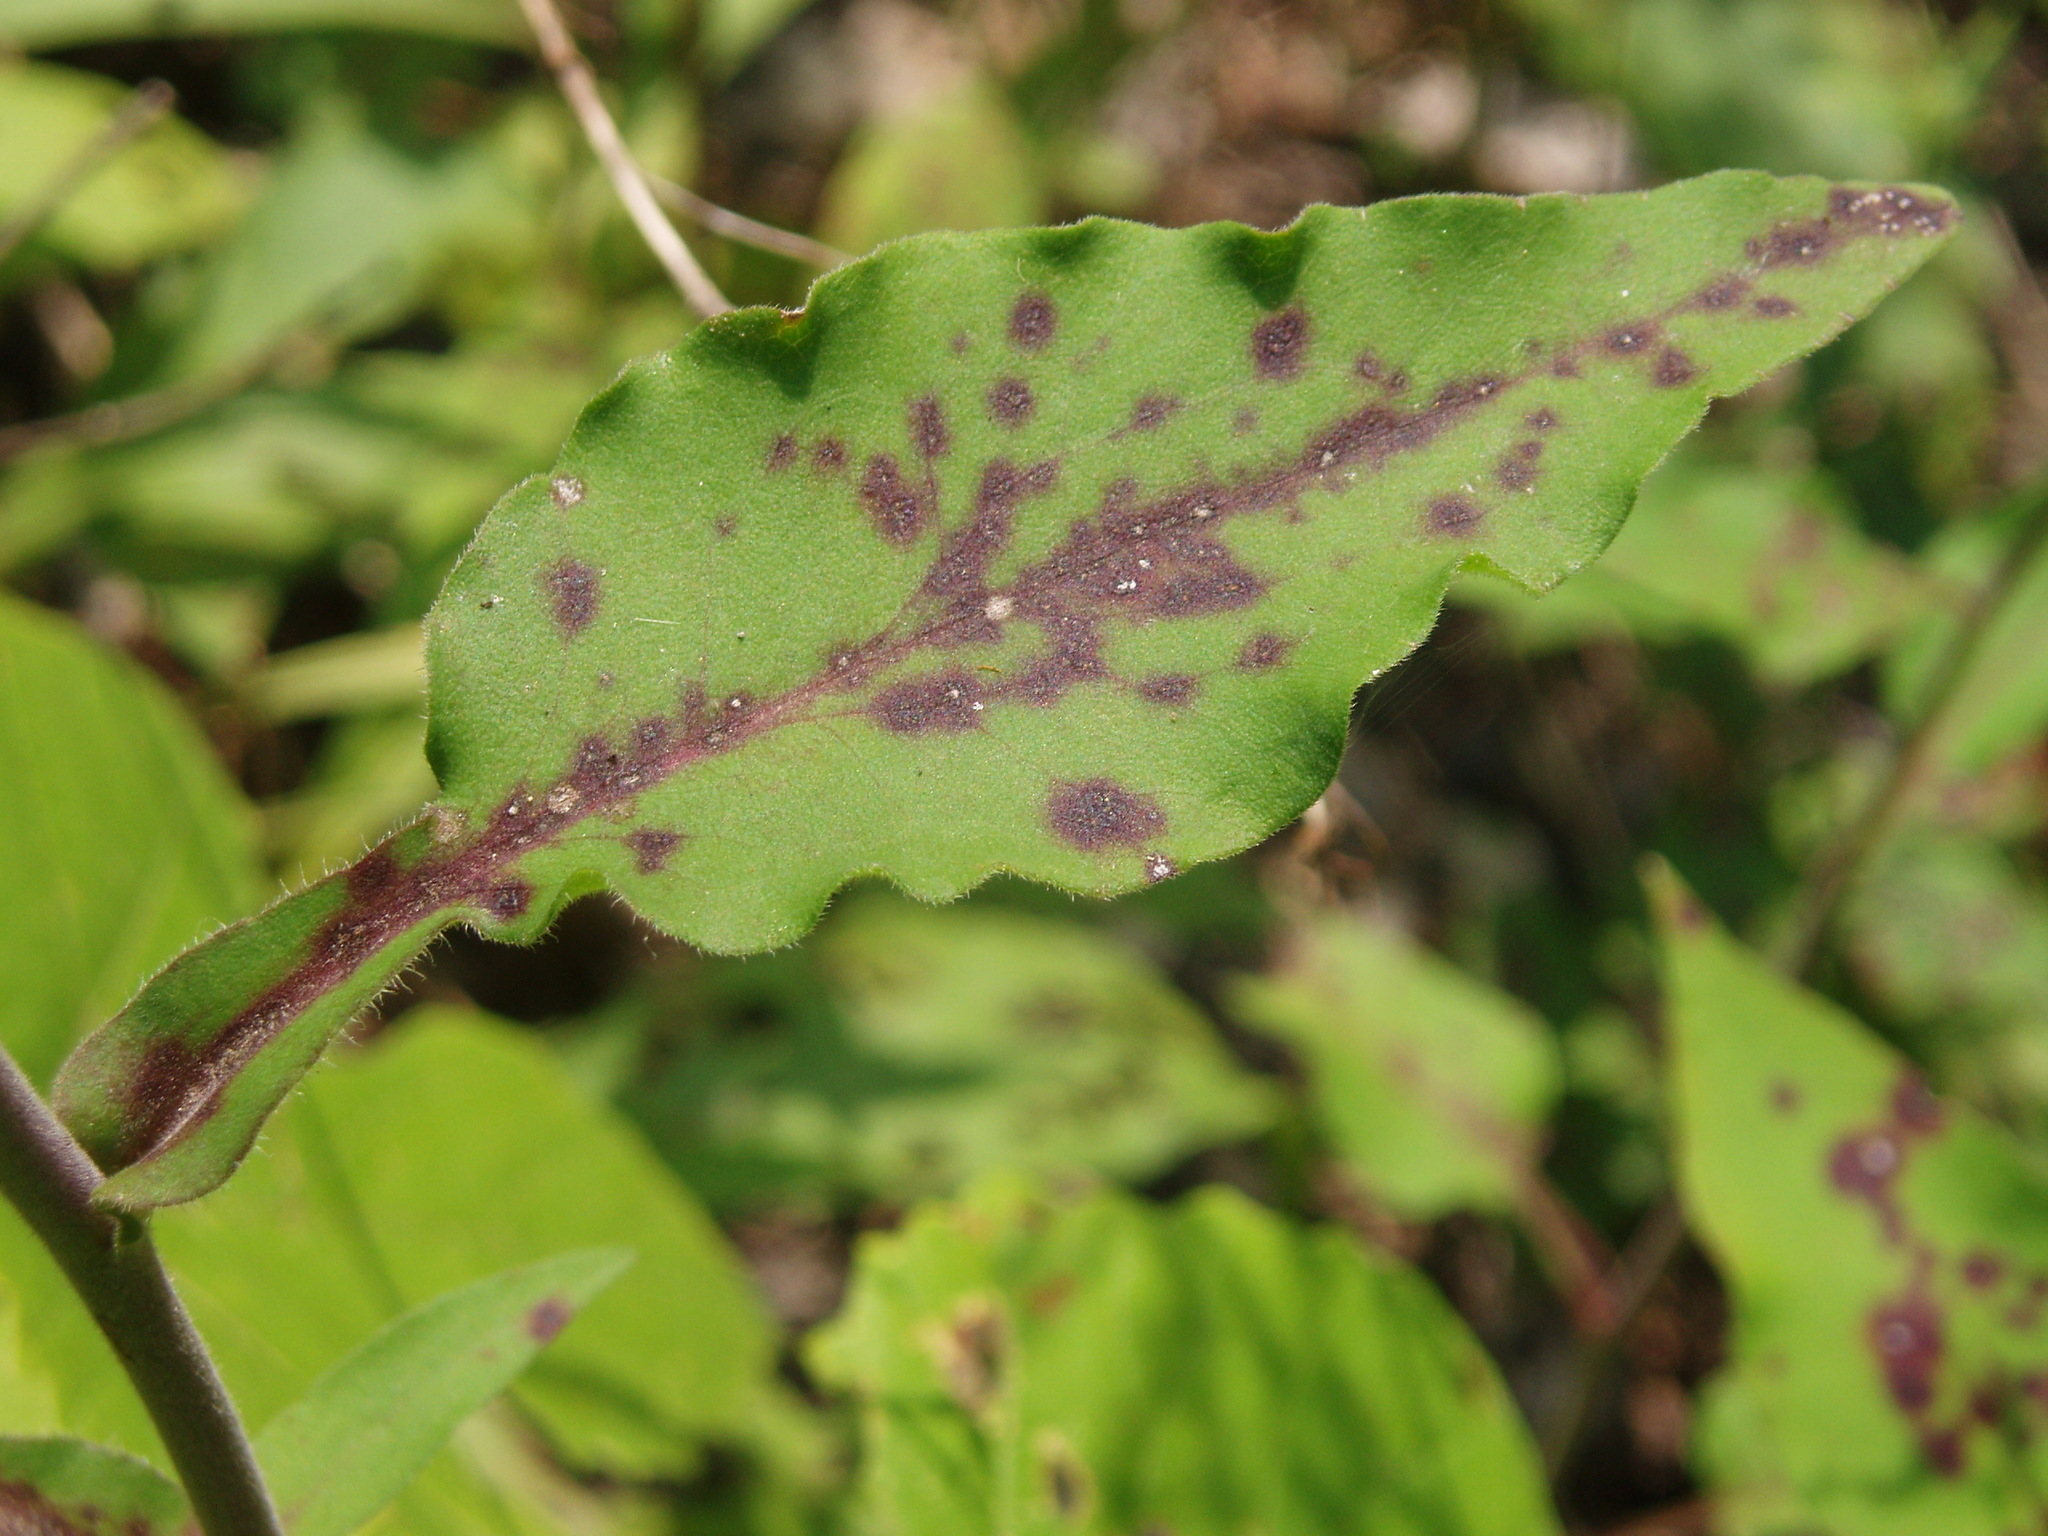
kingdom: Plantae
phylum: Tracheophyta
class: Magnoliopsida
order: Asterales
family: Asteraceae
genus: Symphyotrichum
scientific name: Symphyotrichum undulatum
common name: Clasping heart-leaf aster
